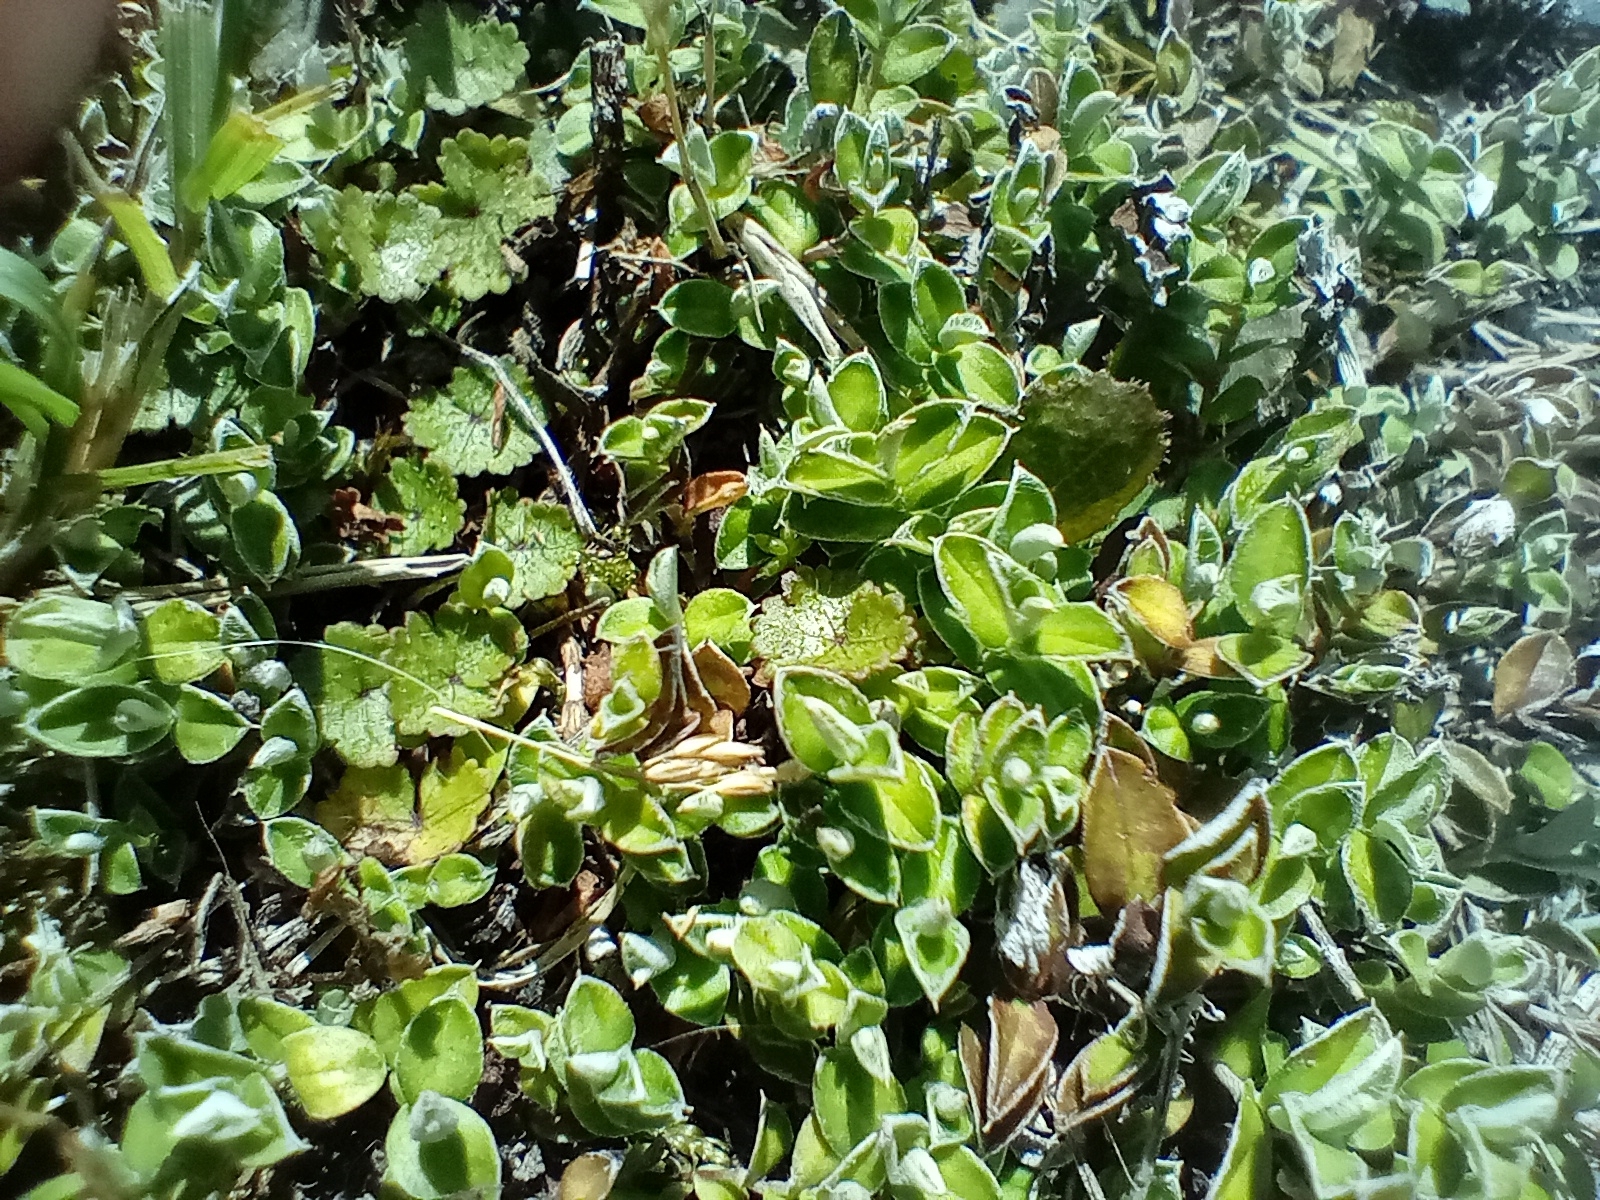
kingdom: Plantae
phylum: Tracheophyta
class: Magnoliopsida
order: Asterales
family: Asteraceae
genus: Helichrysum
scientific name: Helichrysum filicaule
